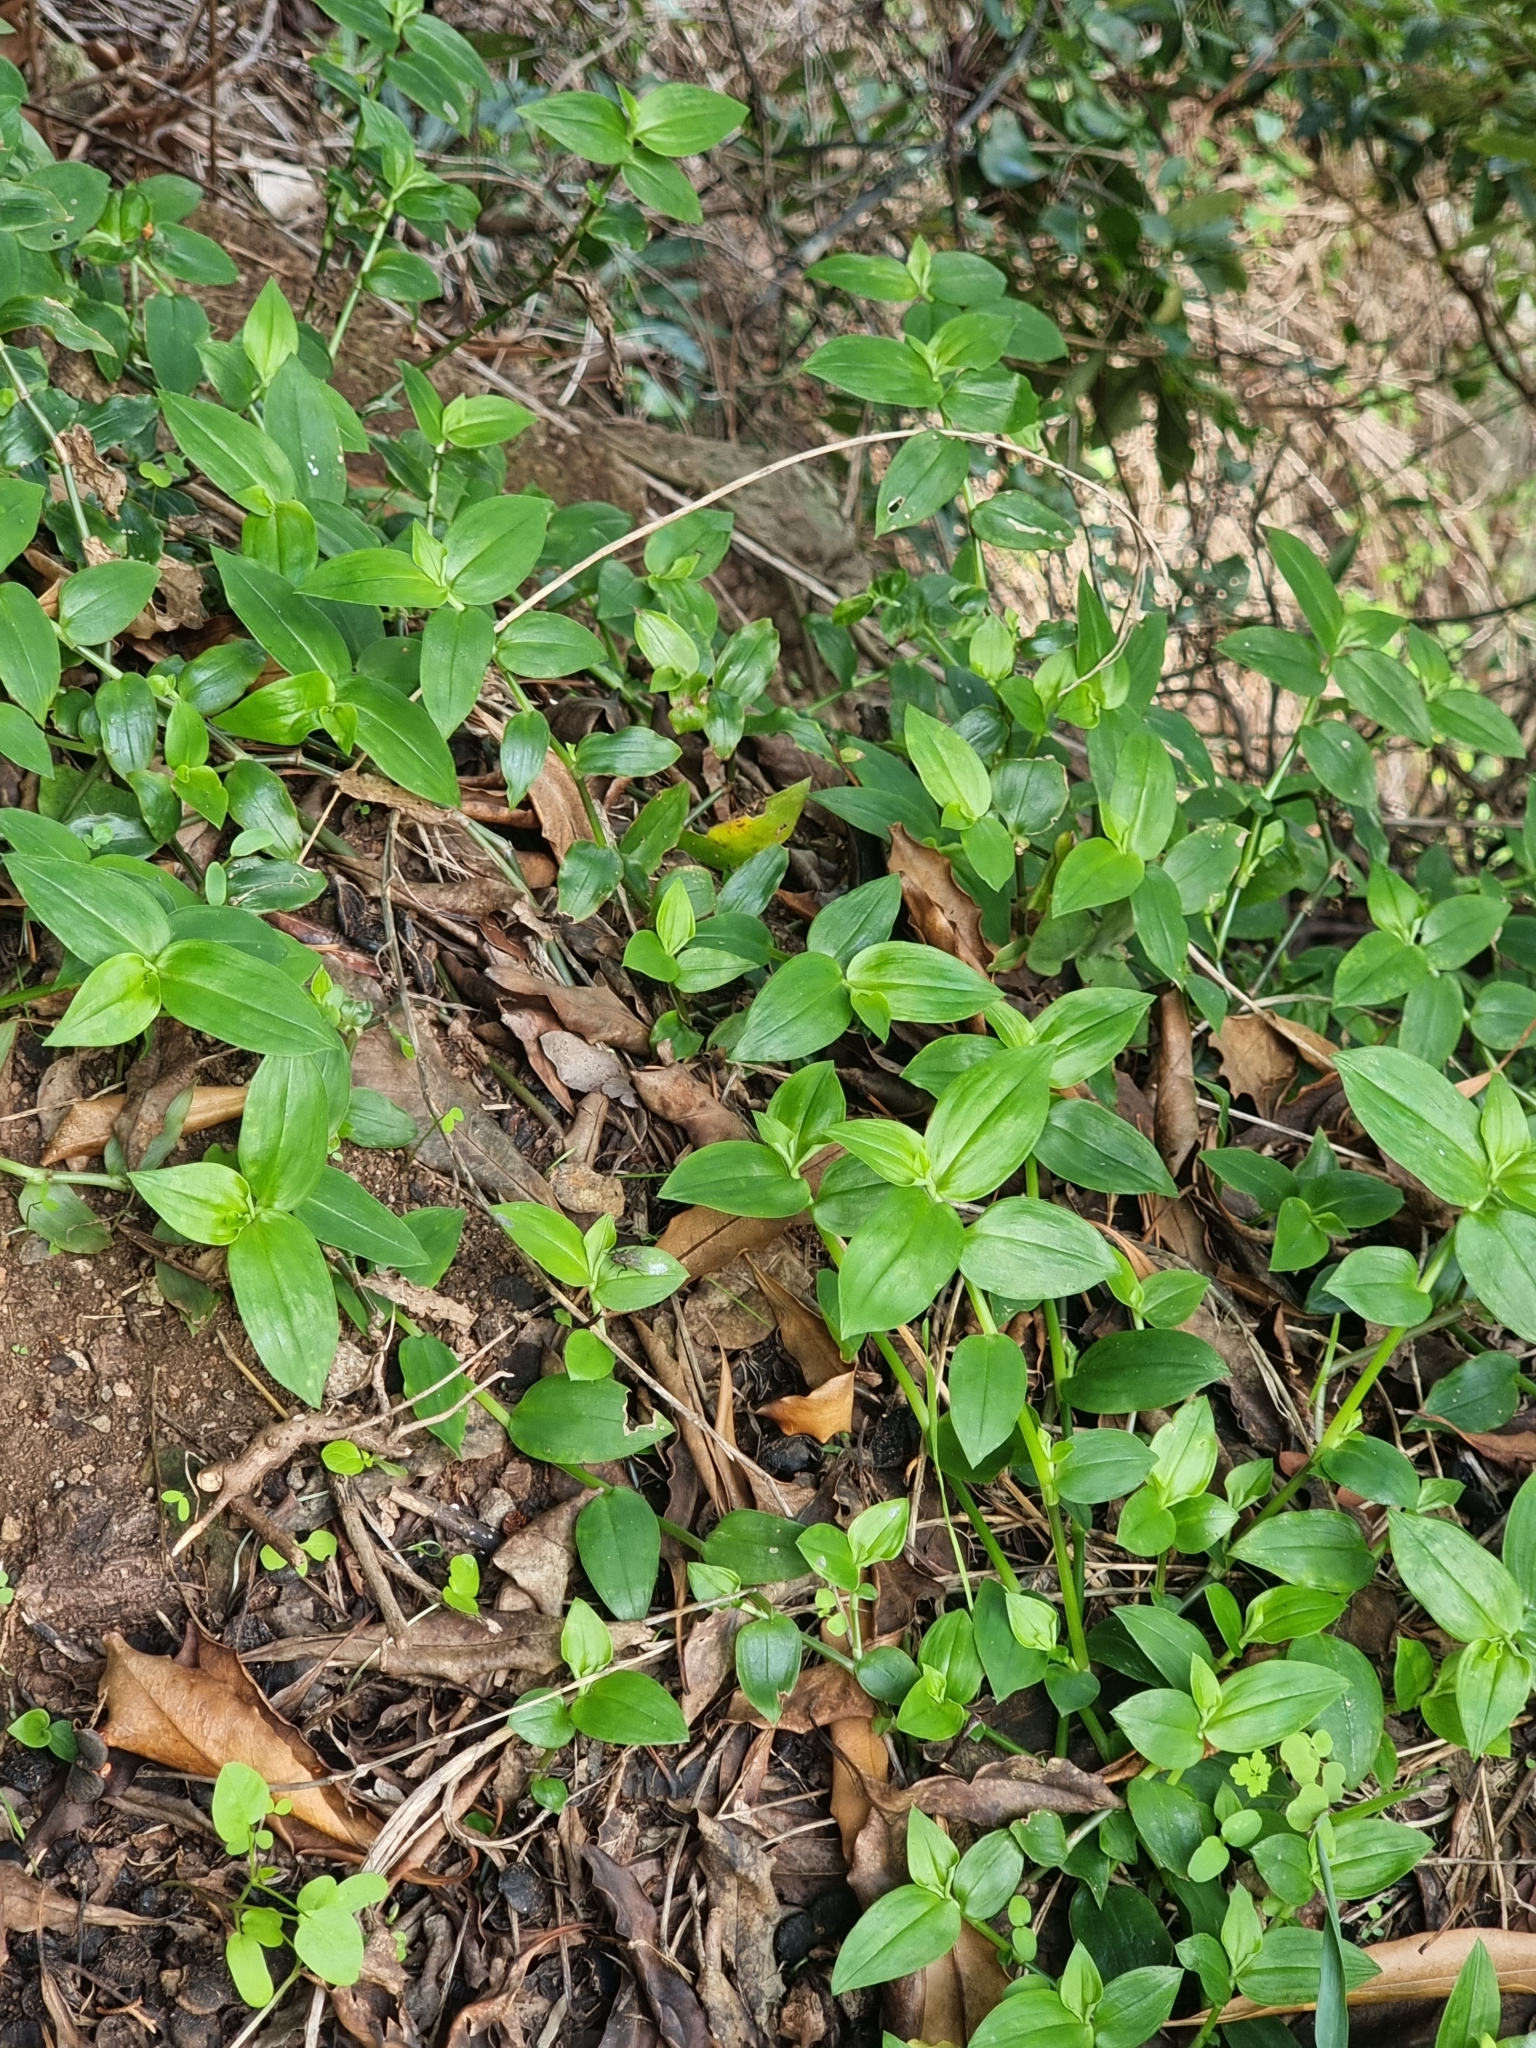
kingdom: Plantae
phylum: Tracheophyta
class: Liliopsida
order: Commelinales
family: Commelinaceae
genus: Tradescantia
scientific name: Tradescantia fluminensis
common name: Wandering-jew
